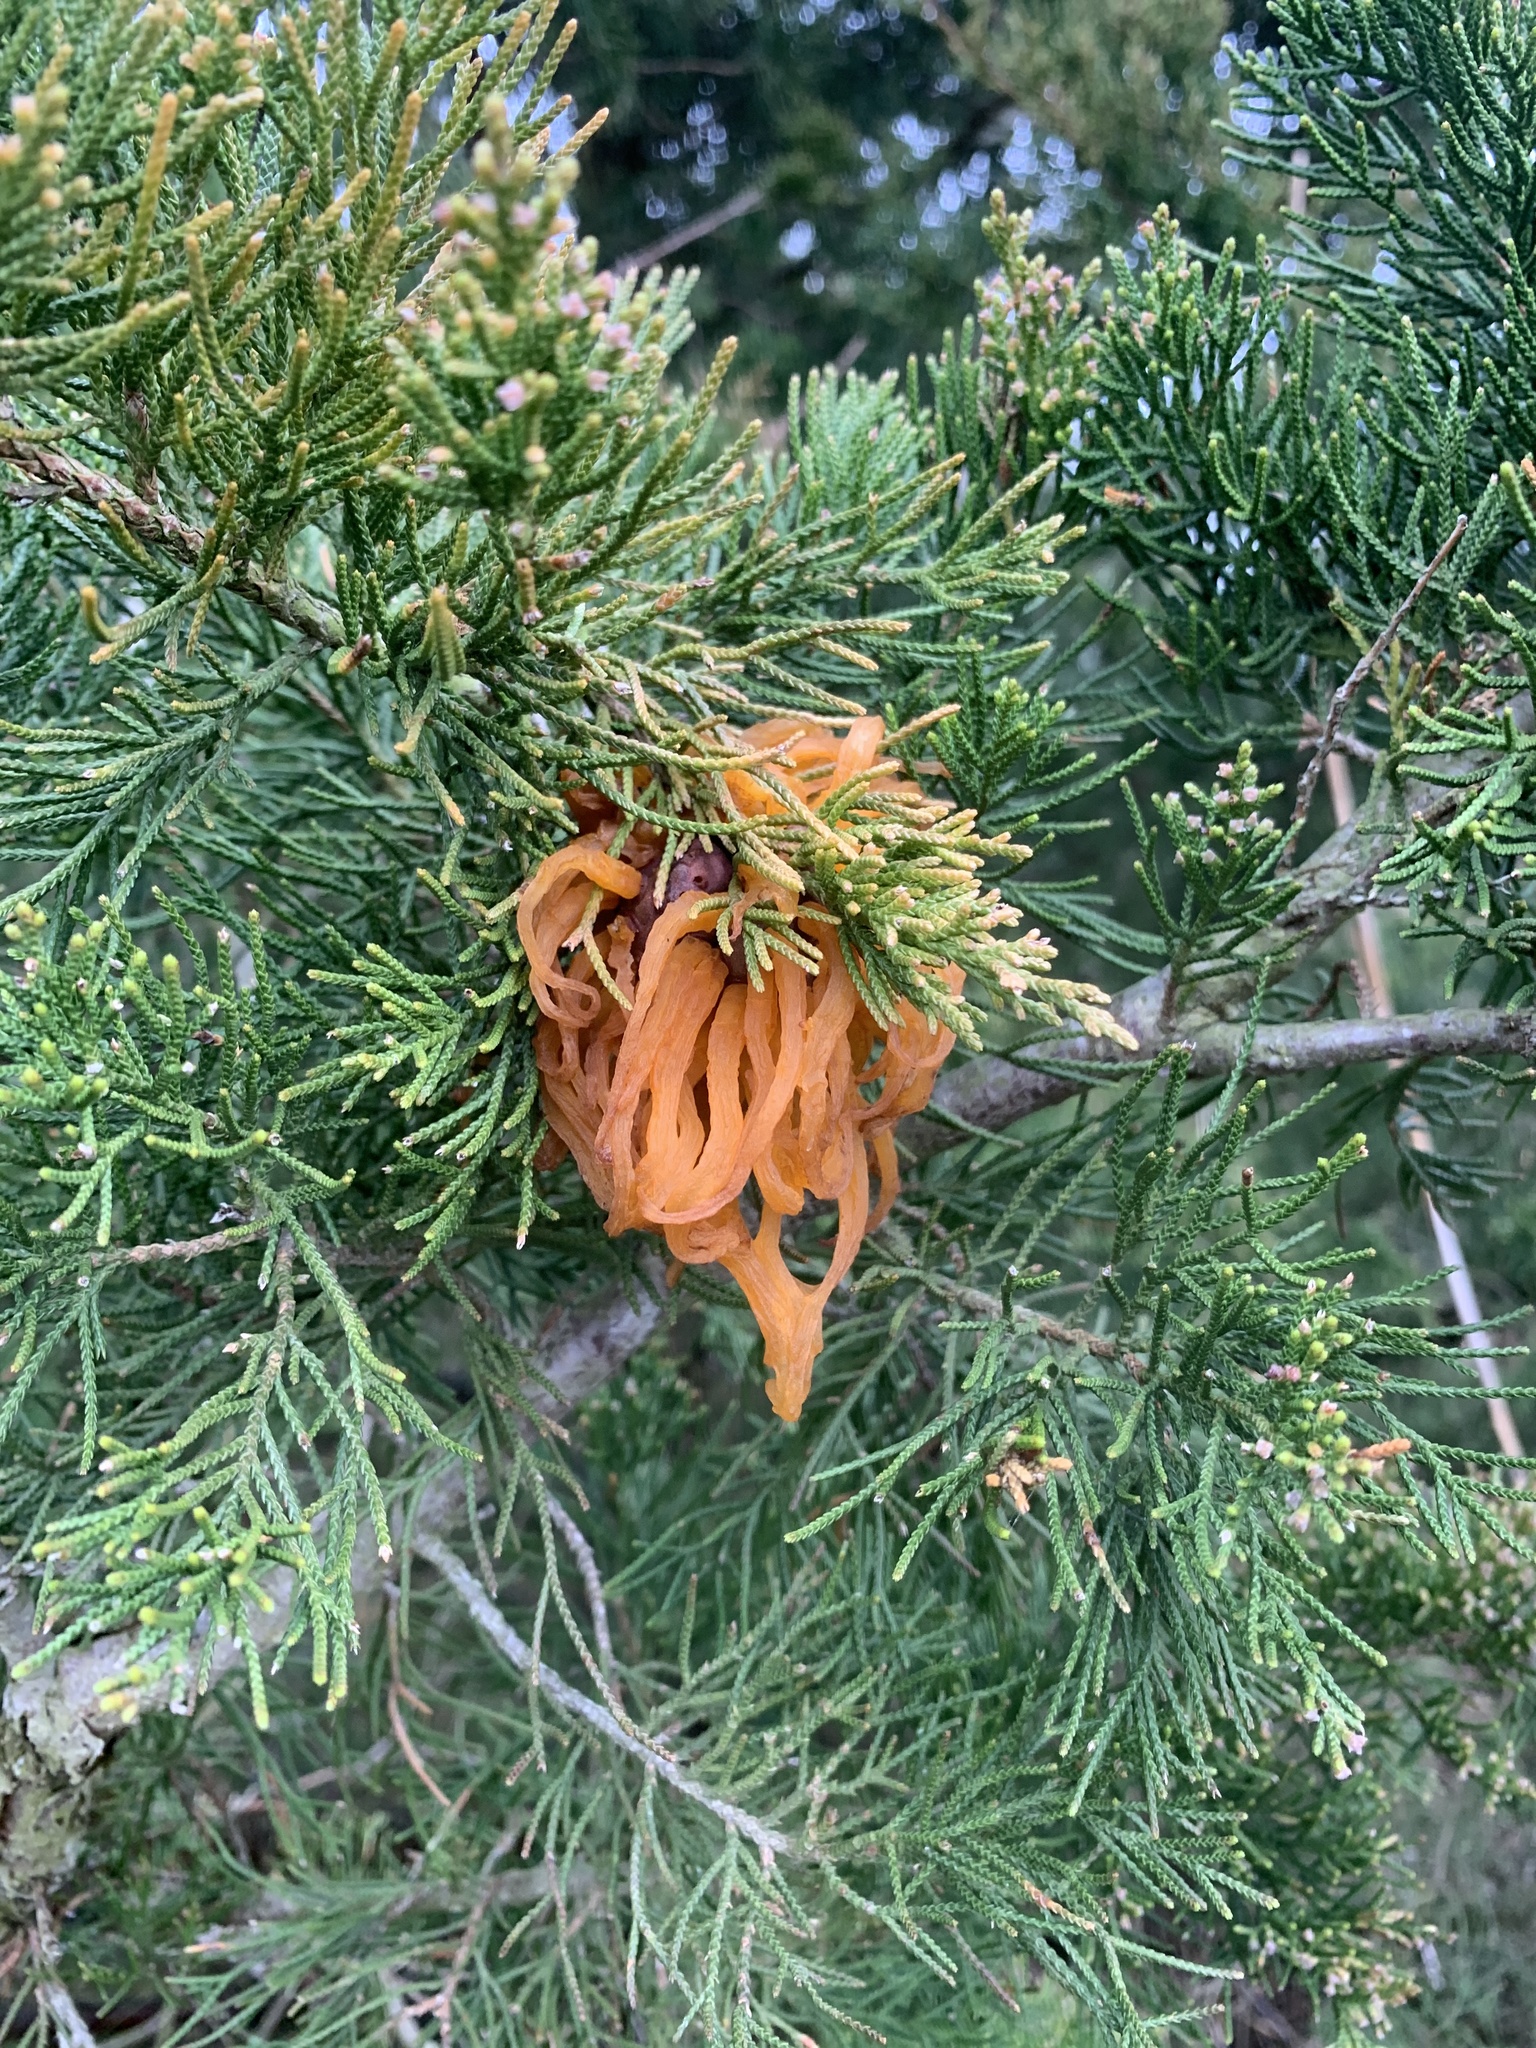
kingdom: Fungi
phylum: Basidiomycota
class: Pucciniomycetes
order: Pucciniales
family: Gymnosporangiaceae
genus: Gymnosporangium
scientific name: Gymnosporangium juniperi-virginianae
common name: Juniper-apple rust
